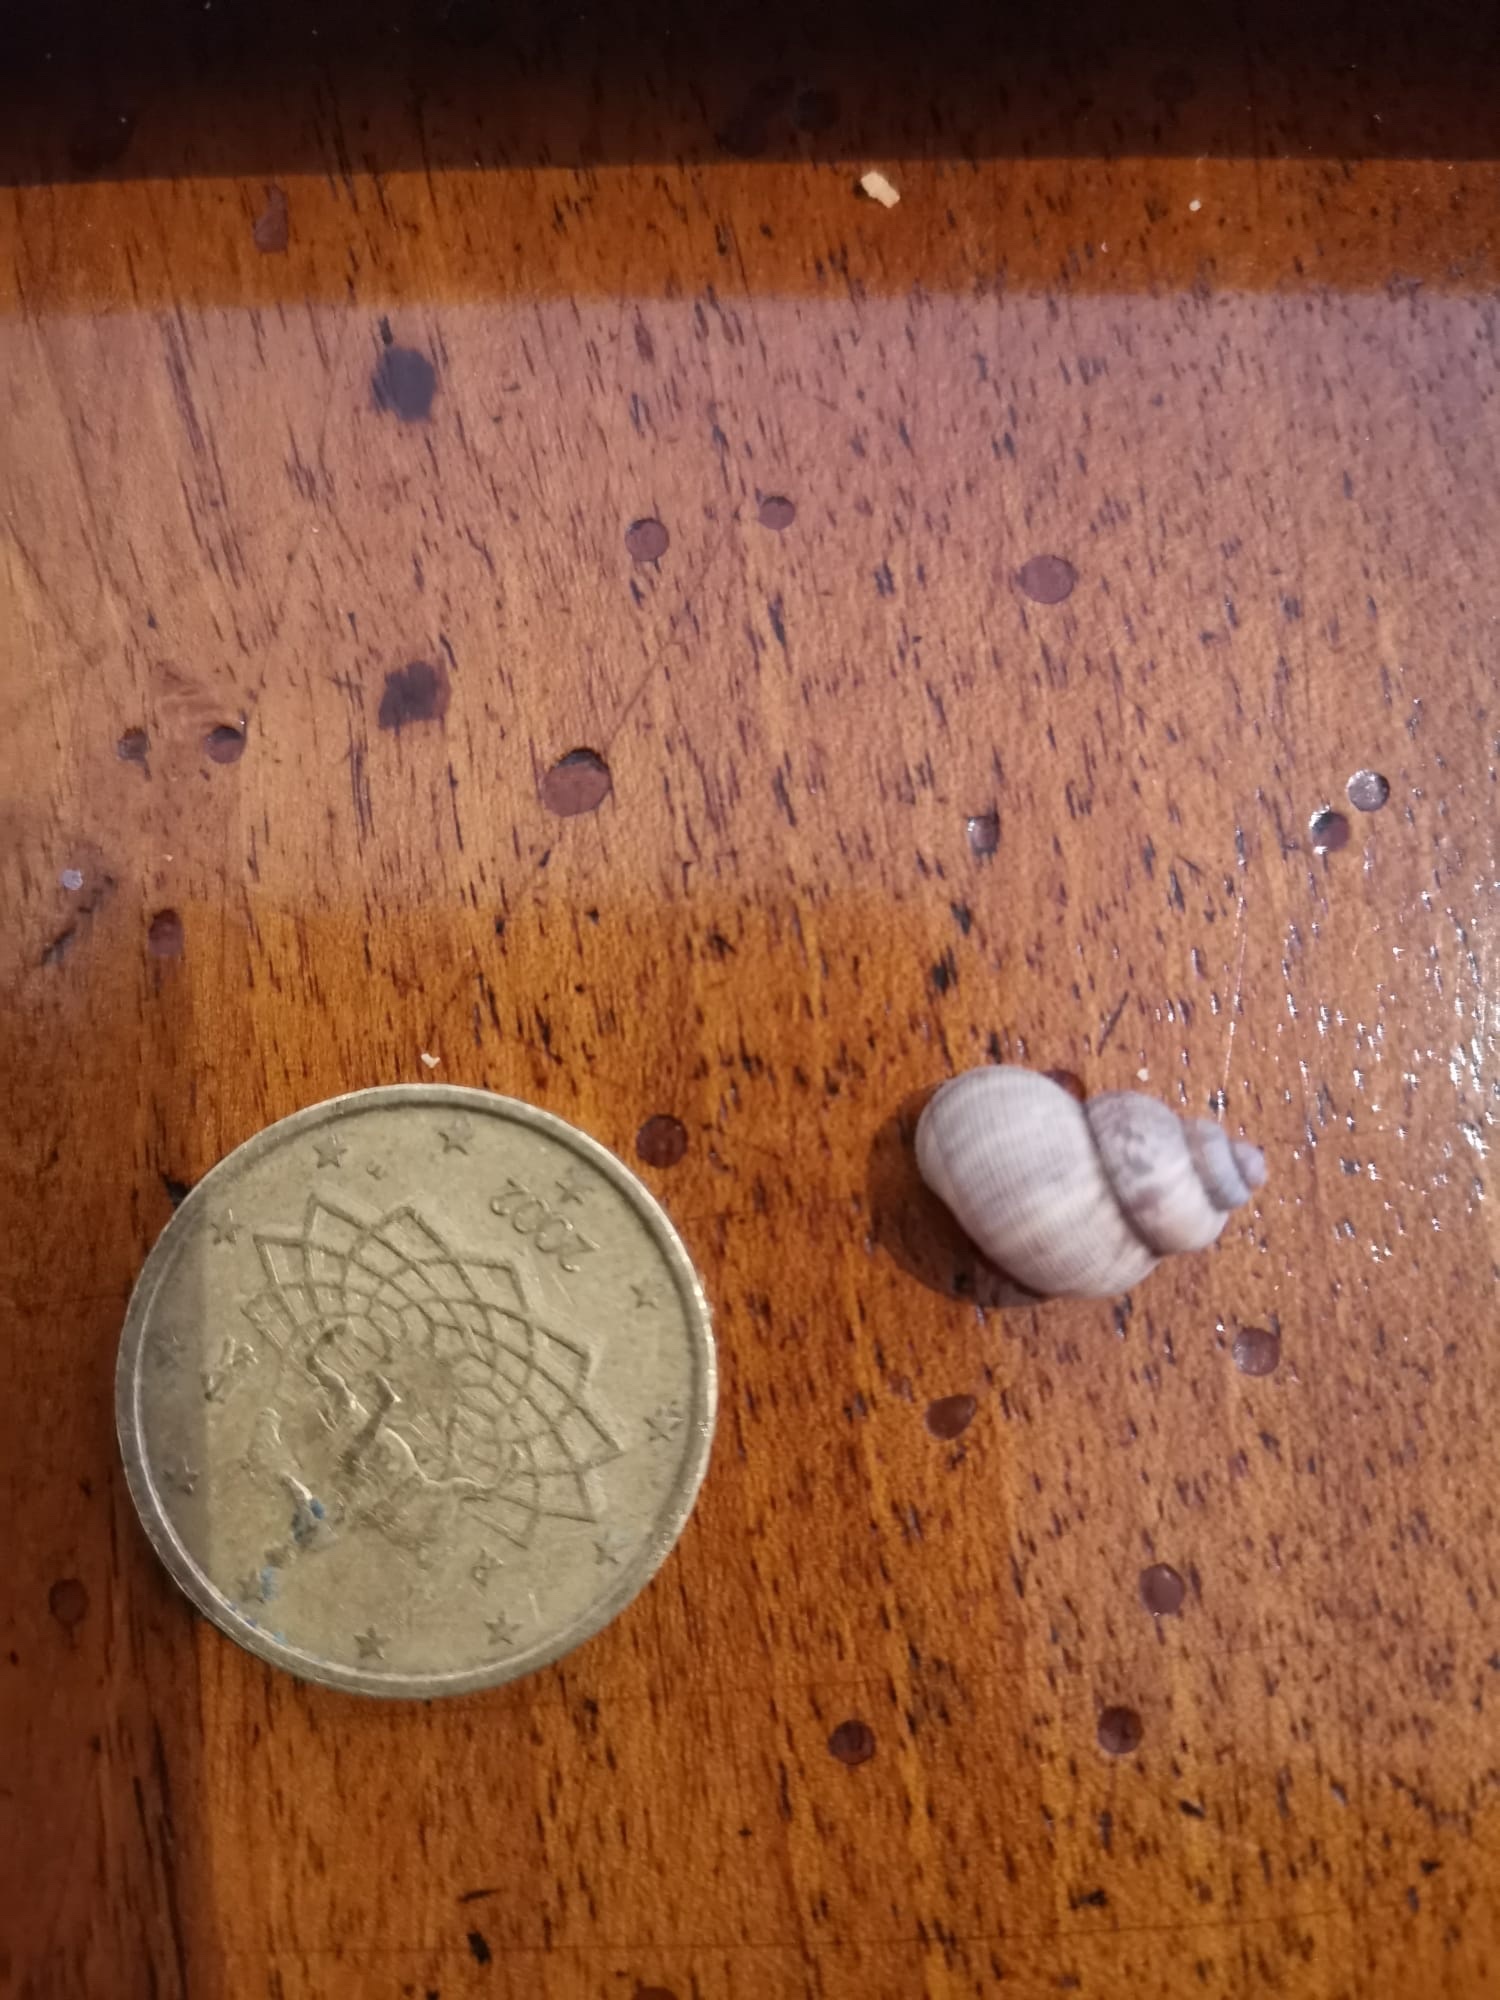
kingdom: Animalia
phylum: Mollusca
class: Gastropoda
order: Littorinimorpha
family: Pomatiidae
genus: Pomatias
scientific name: Pomatias elegans
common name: Red-mouthed snail
